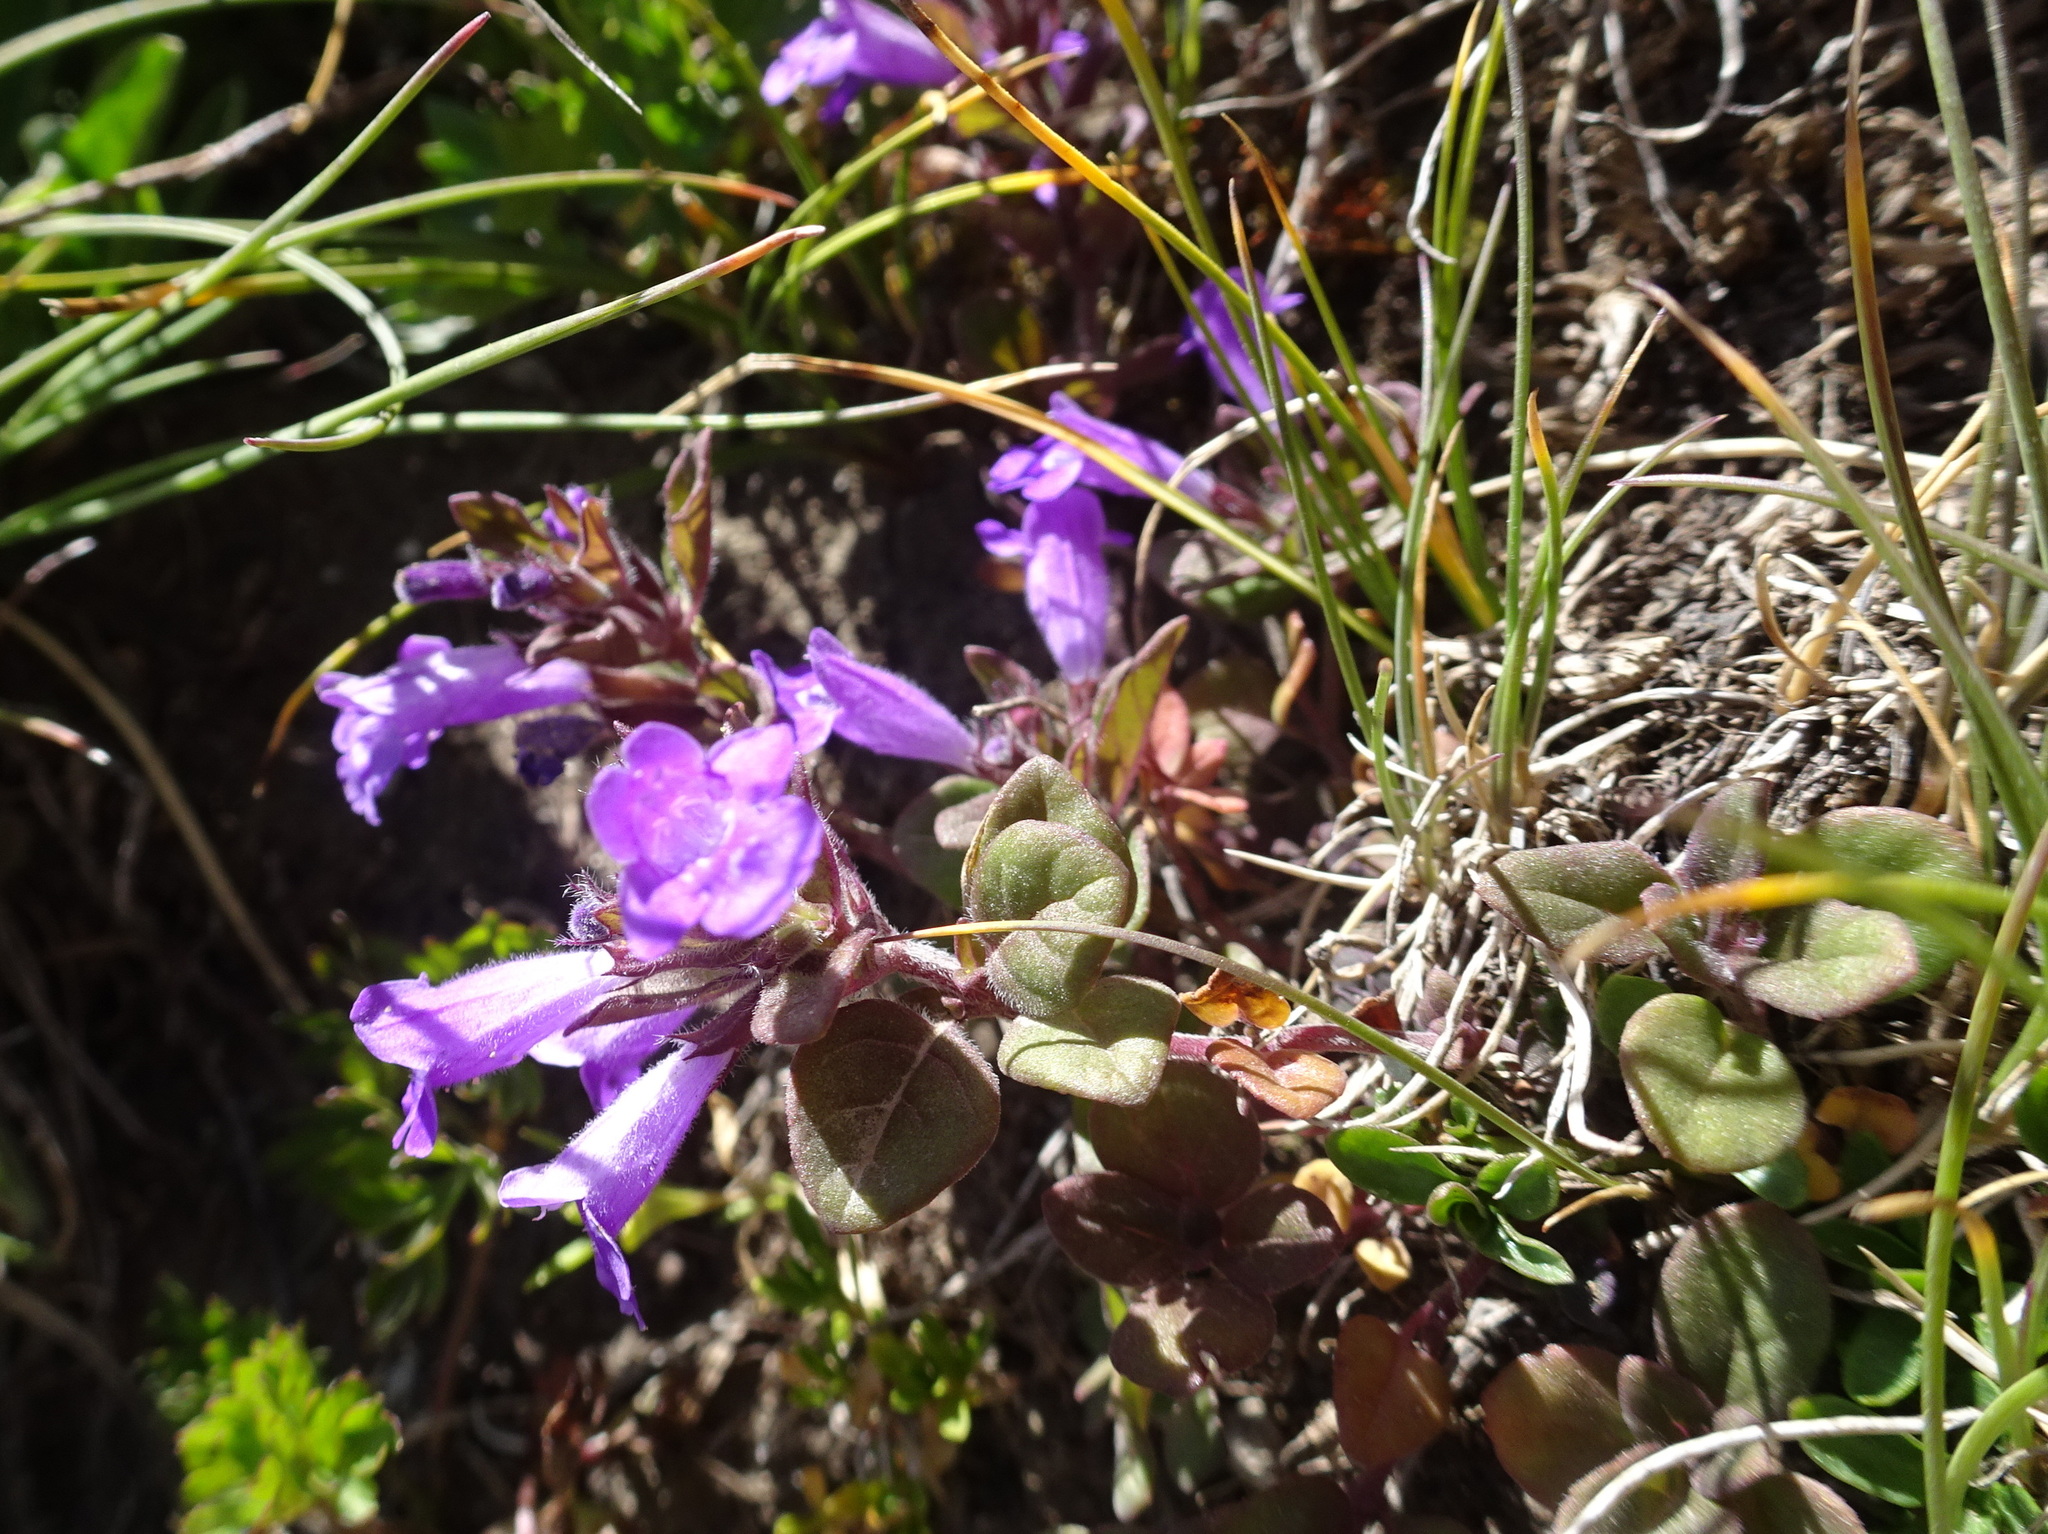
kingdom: Plantae
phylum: Tracheophyta
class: Magnoliopsida
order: Lamiales
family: Lamiaceae
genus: Clinopodium
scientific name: Clinopodium alpinum
